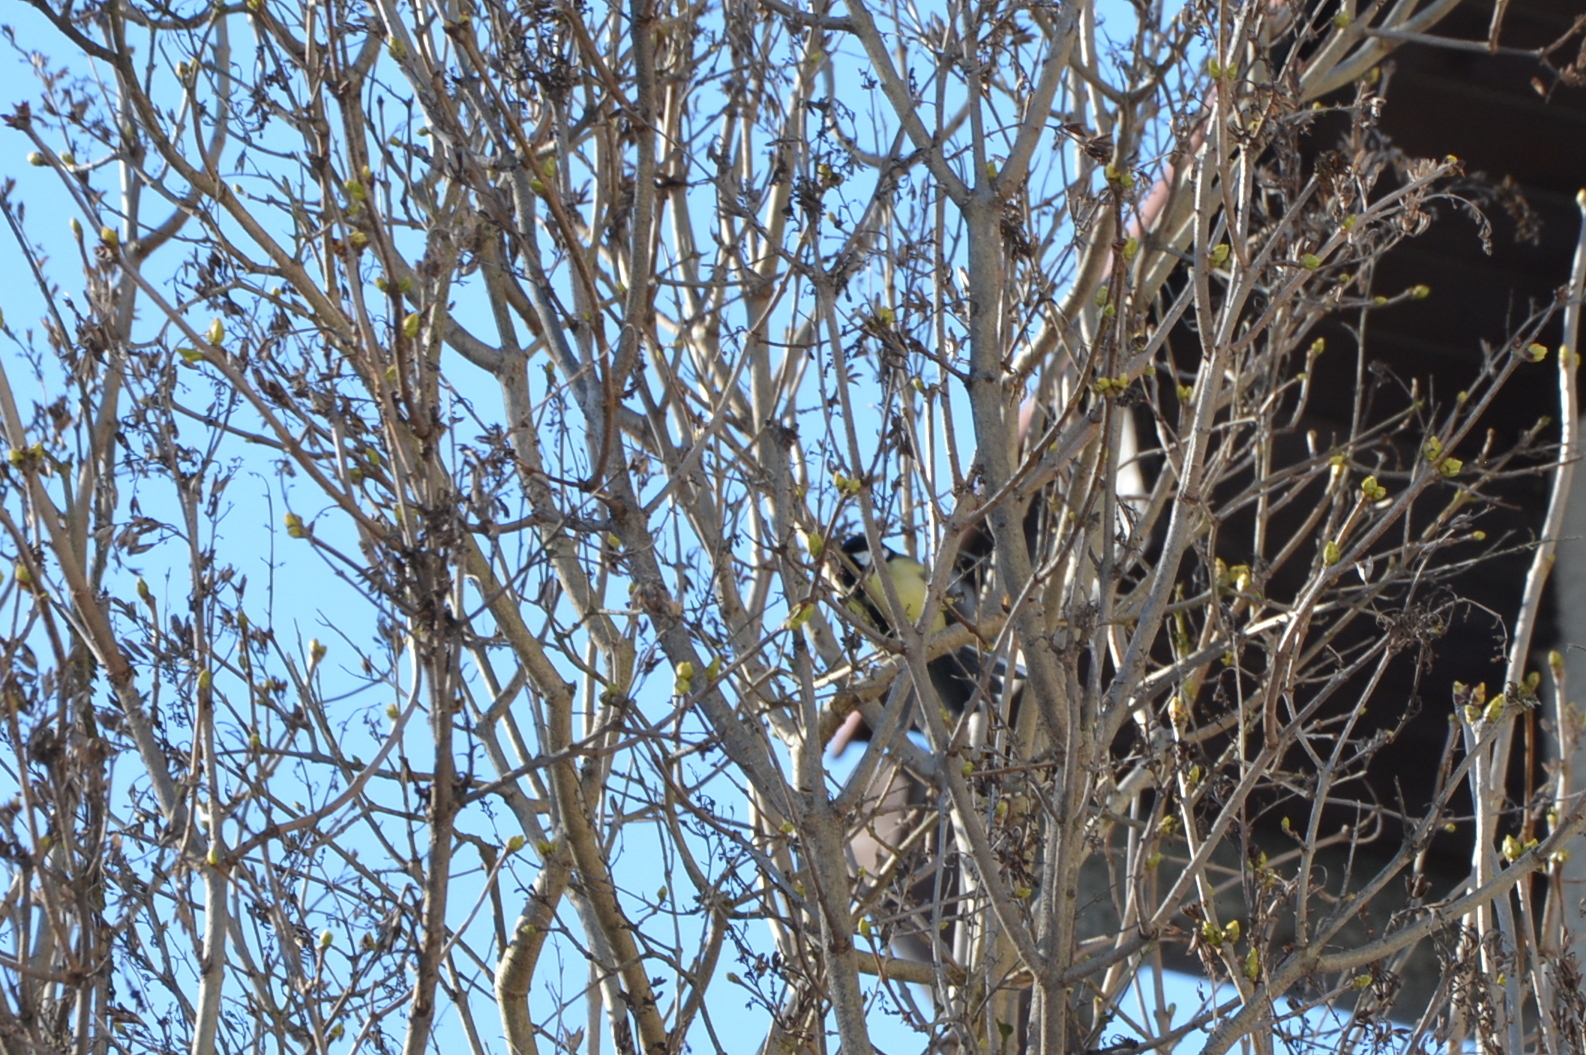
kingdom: Animalia
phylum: Chordata
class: Aves
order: Passeriformes
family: Paridae
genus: Parus
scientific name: Parus major
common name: Great tit
